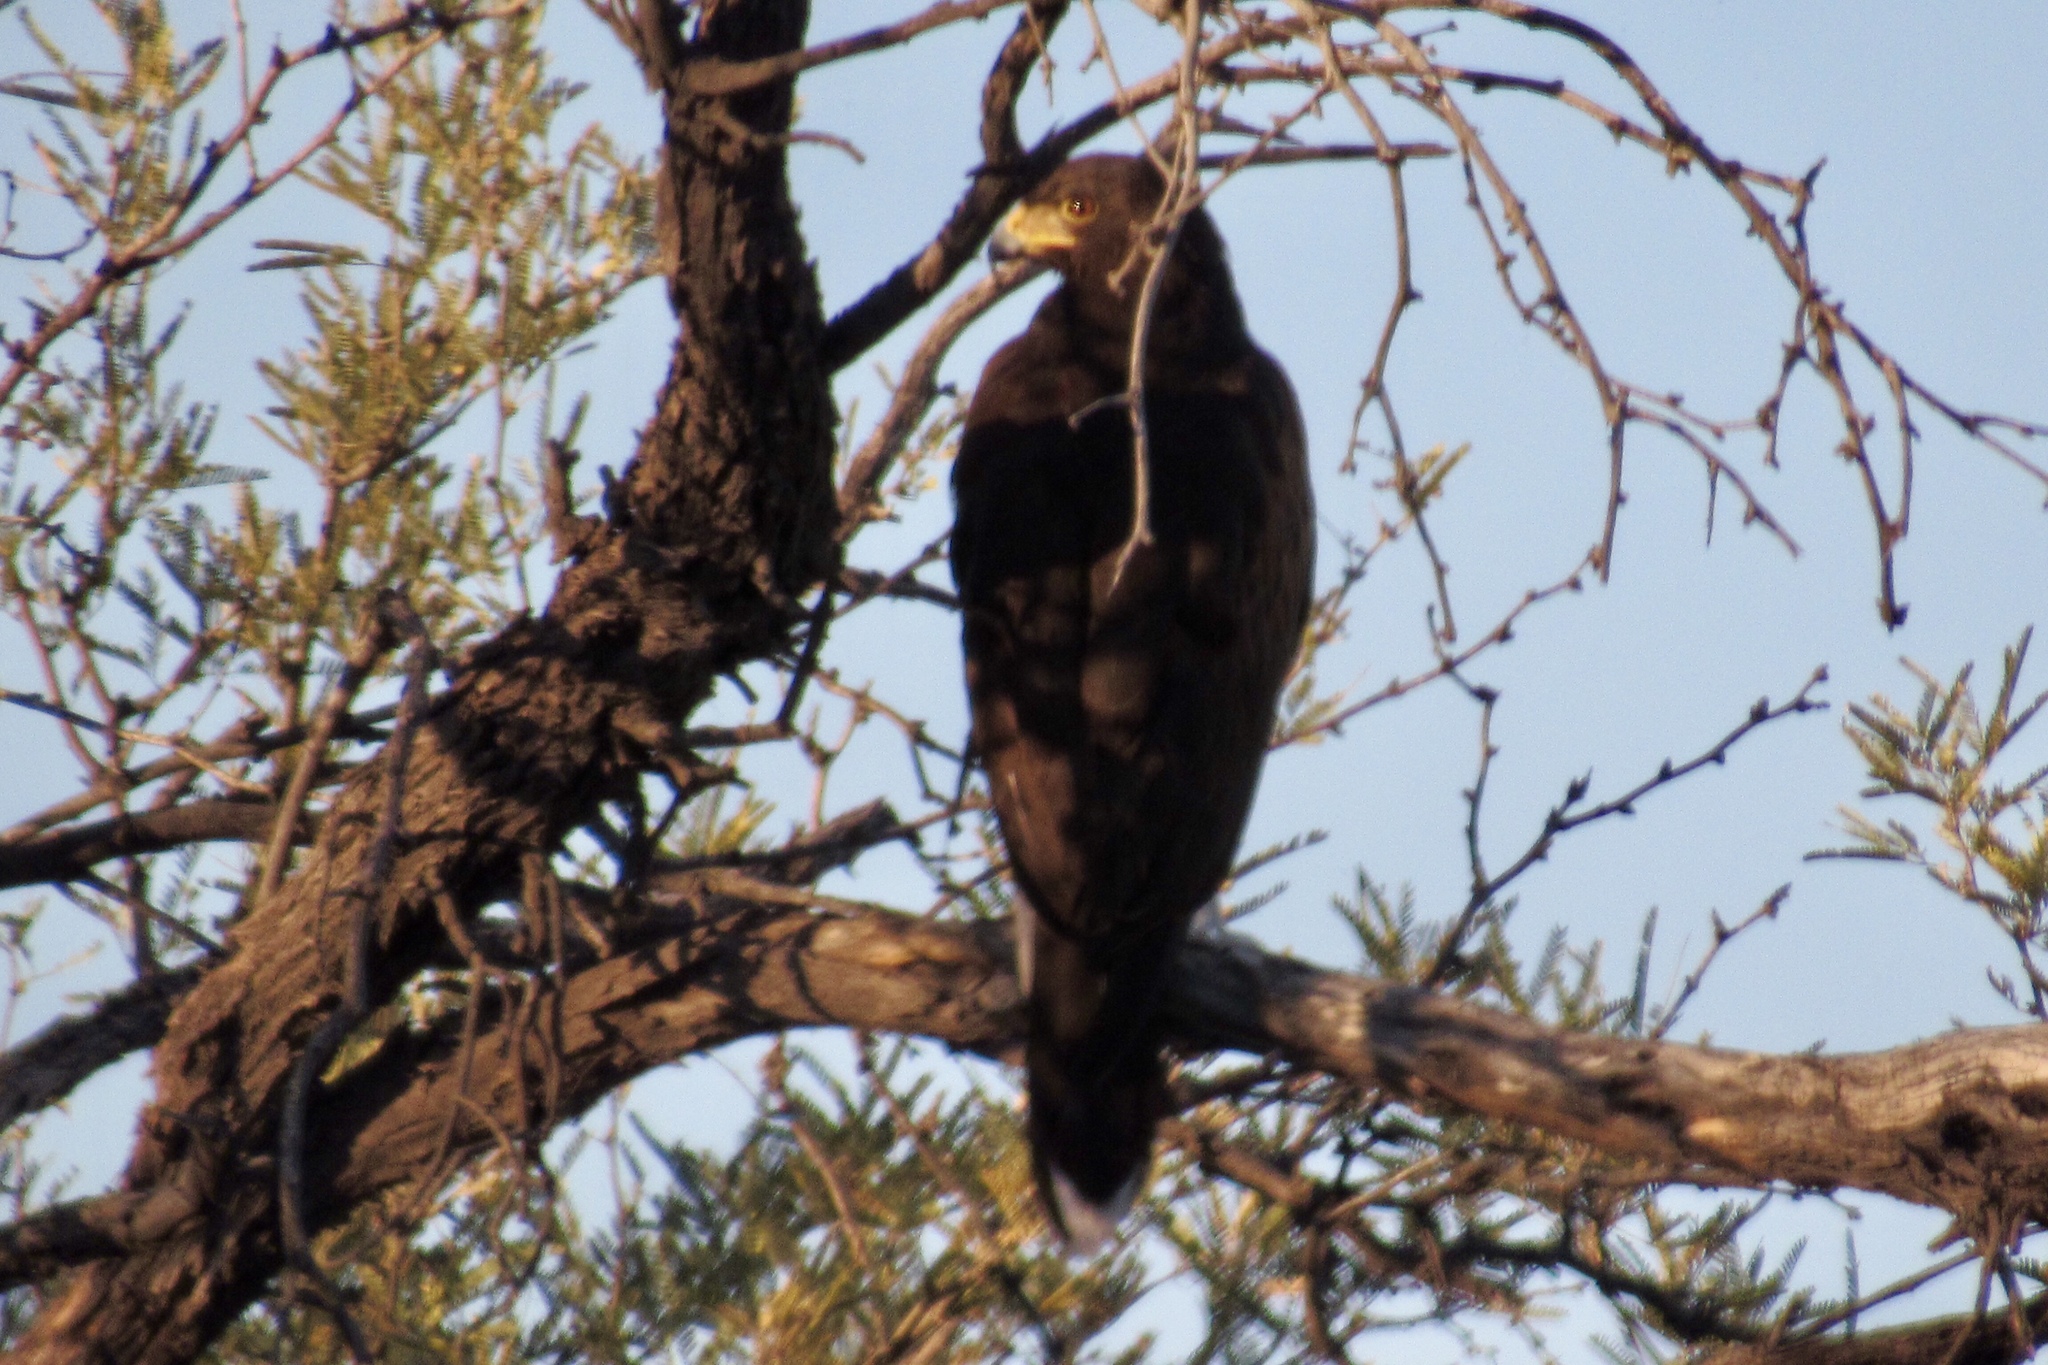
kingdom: Animalia
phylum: Chordata
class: Aves
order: Accipitriformes
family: Accipitridae
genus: Parabuteo
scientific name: Parabuteo unicinctus
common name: Harris's hawk
